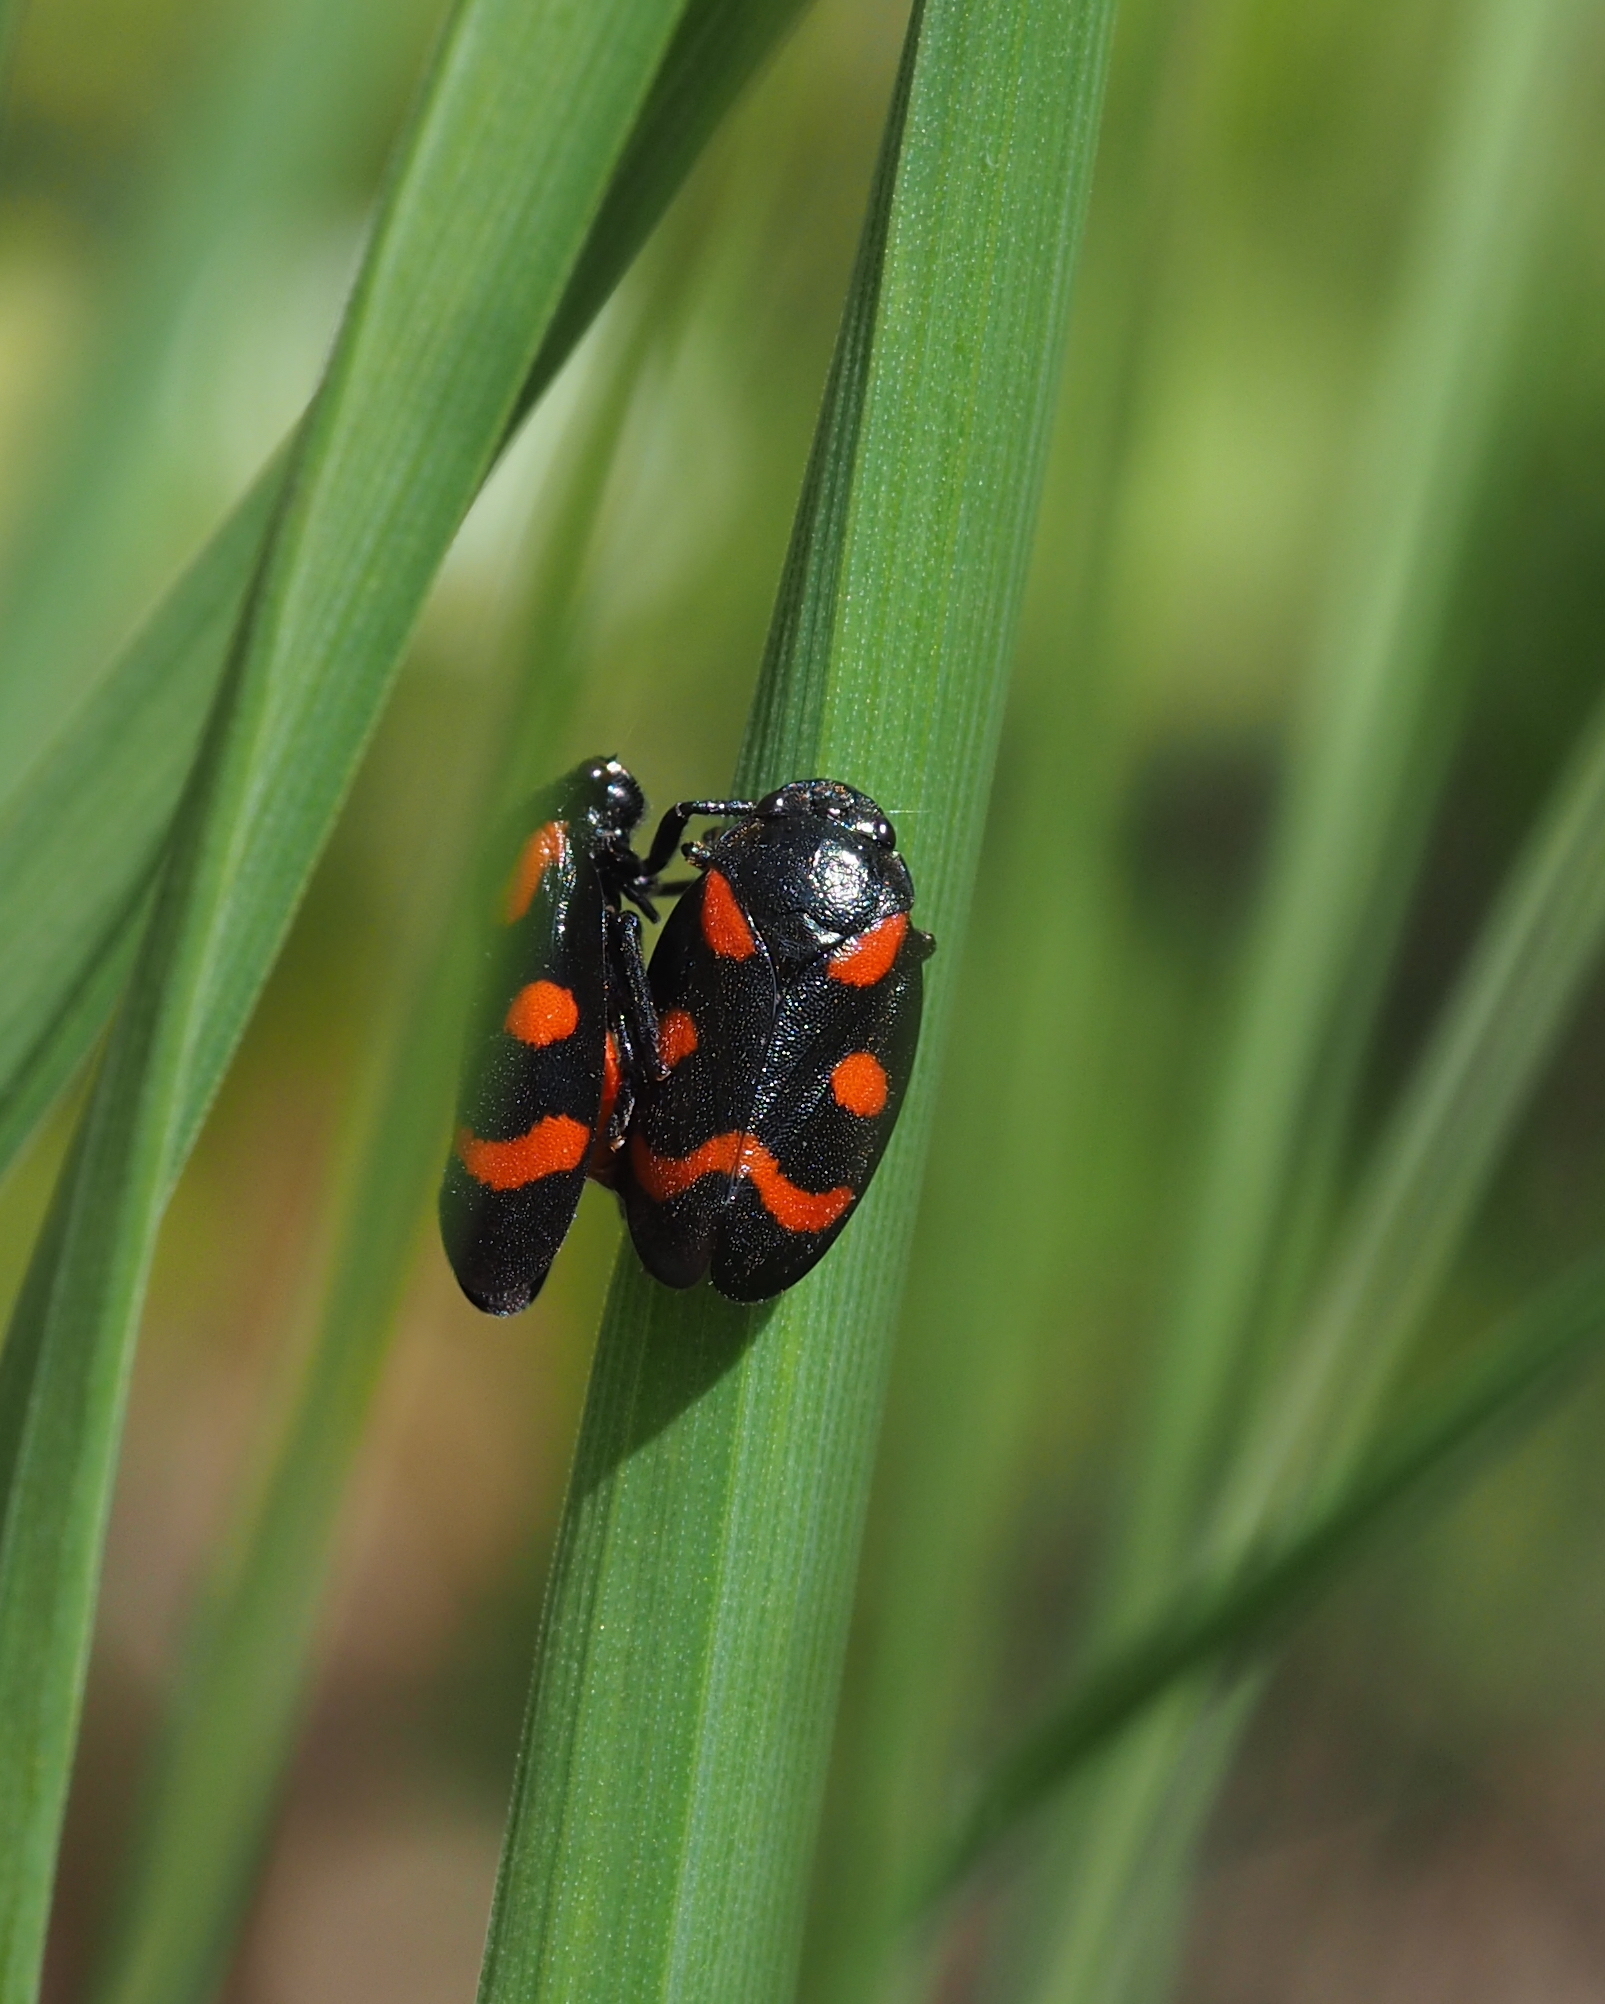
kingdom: Animalia
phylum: Arthropoda
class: Insecta
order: Hemiptera
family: Cercopidae
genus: Cercopis
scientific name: Cercopis arcuata
